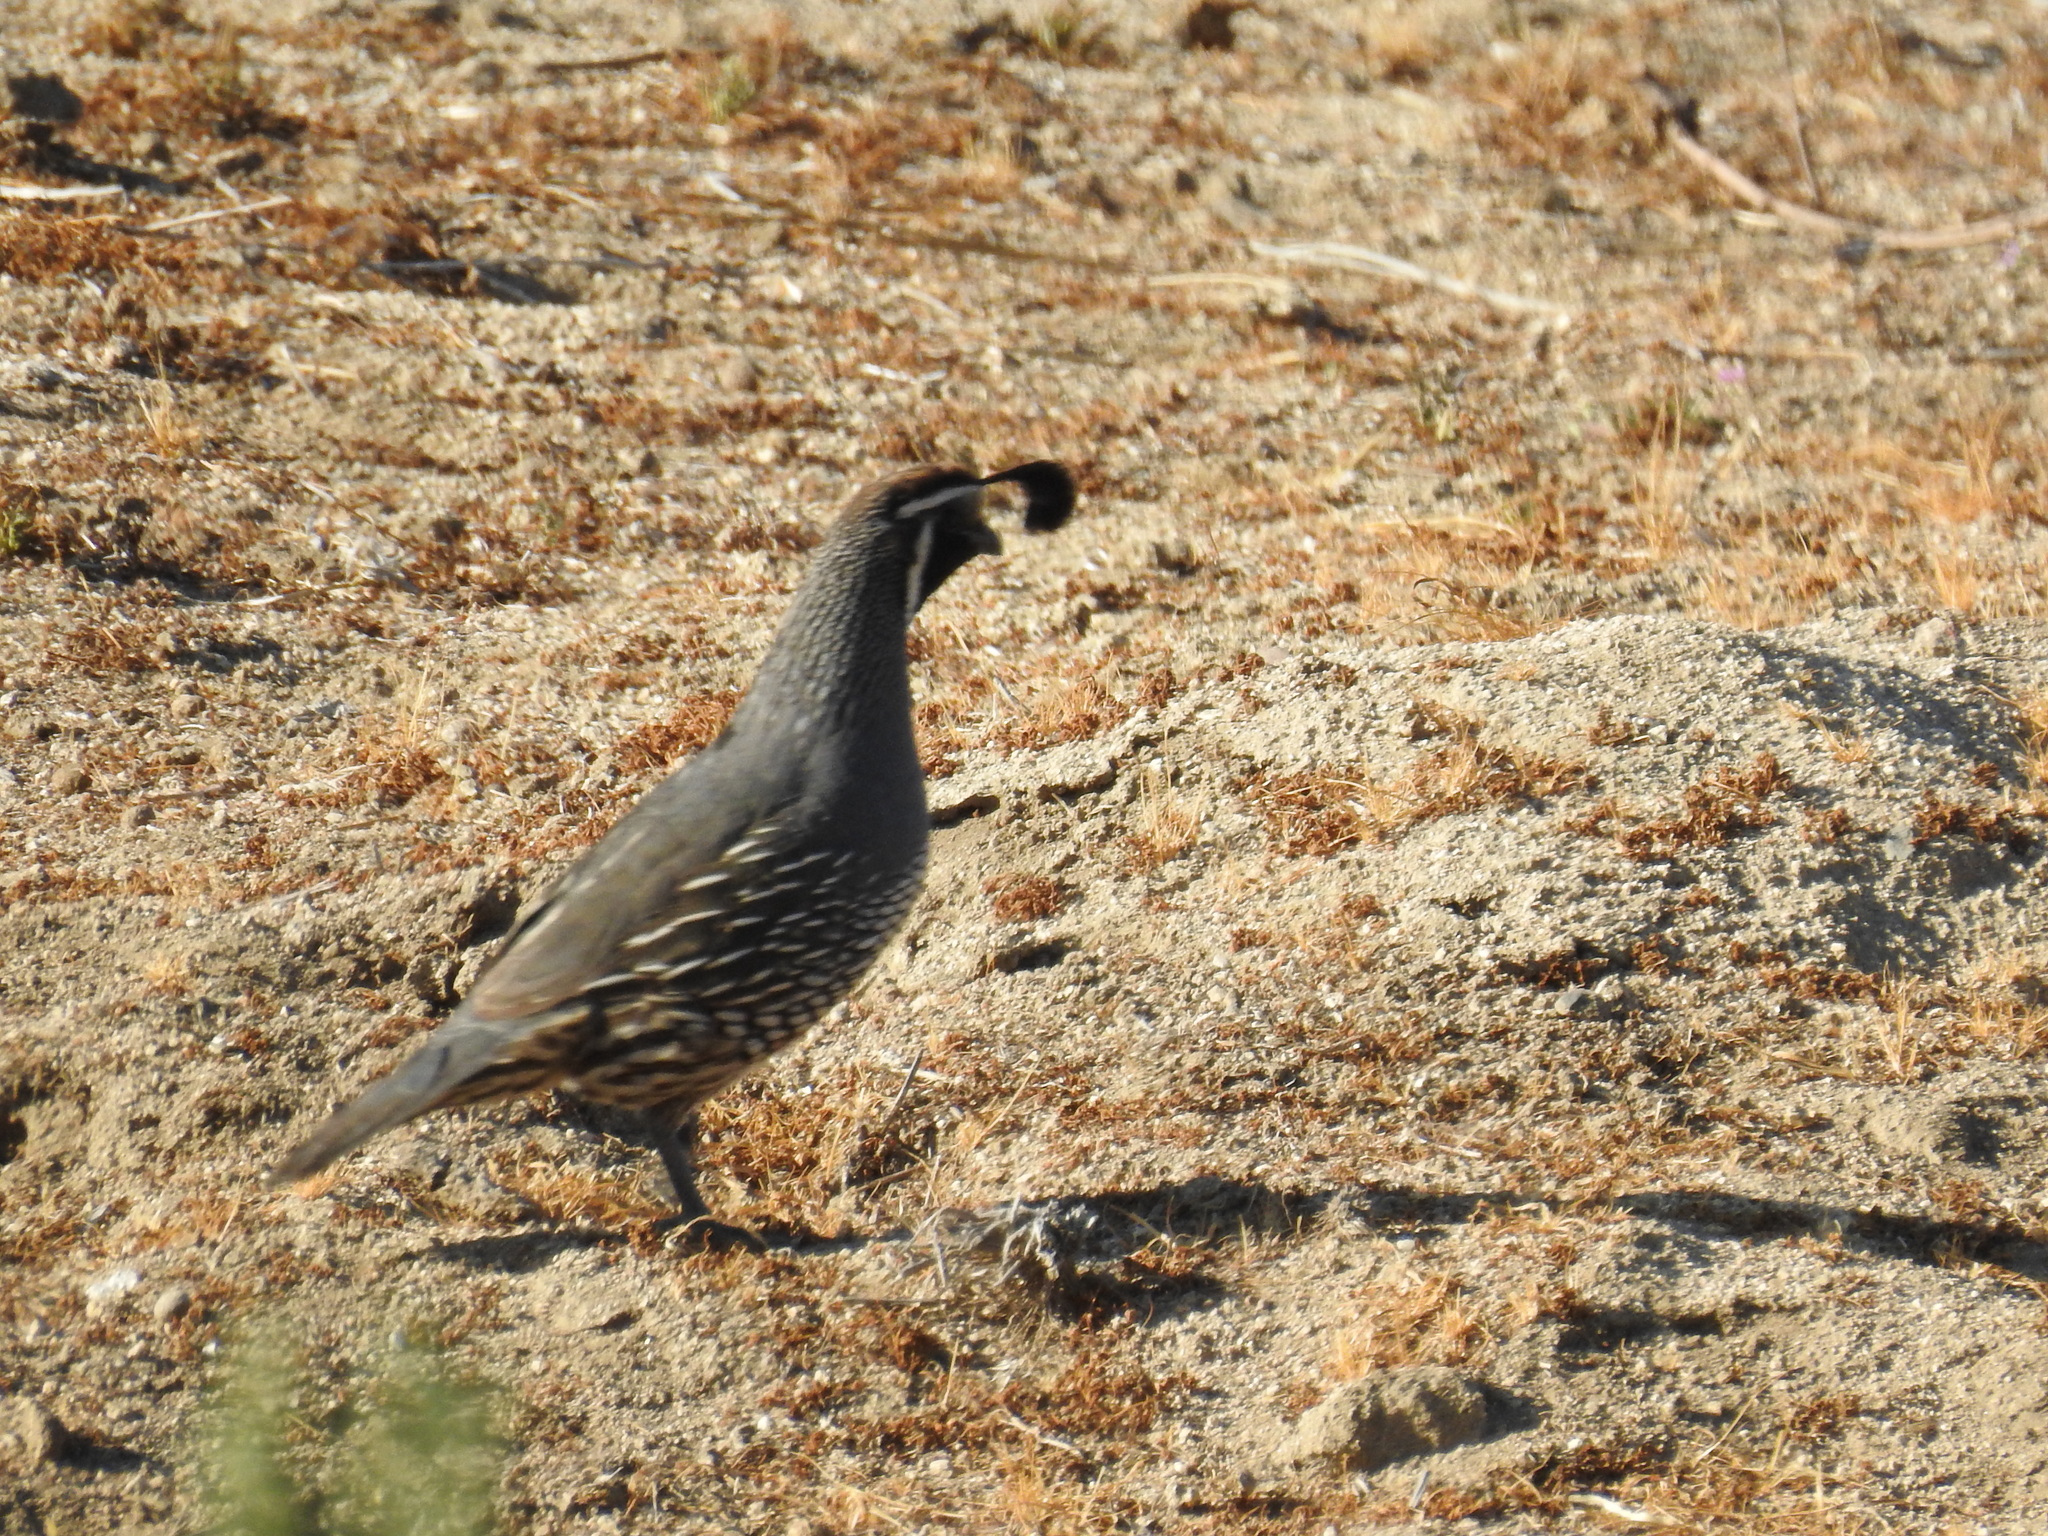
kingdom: Animalia
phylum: Chordata
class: Aves
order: Galliformes
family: Odontophoridae
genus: Callipepla
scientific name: Callipepla californica
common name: California quail
